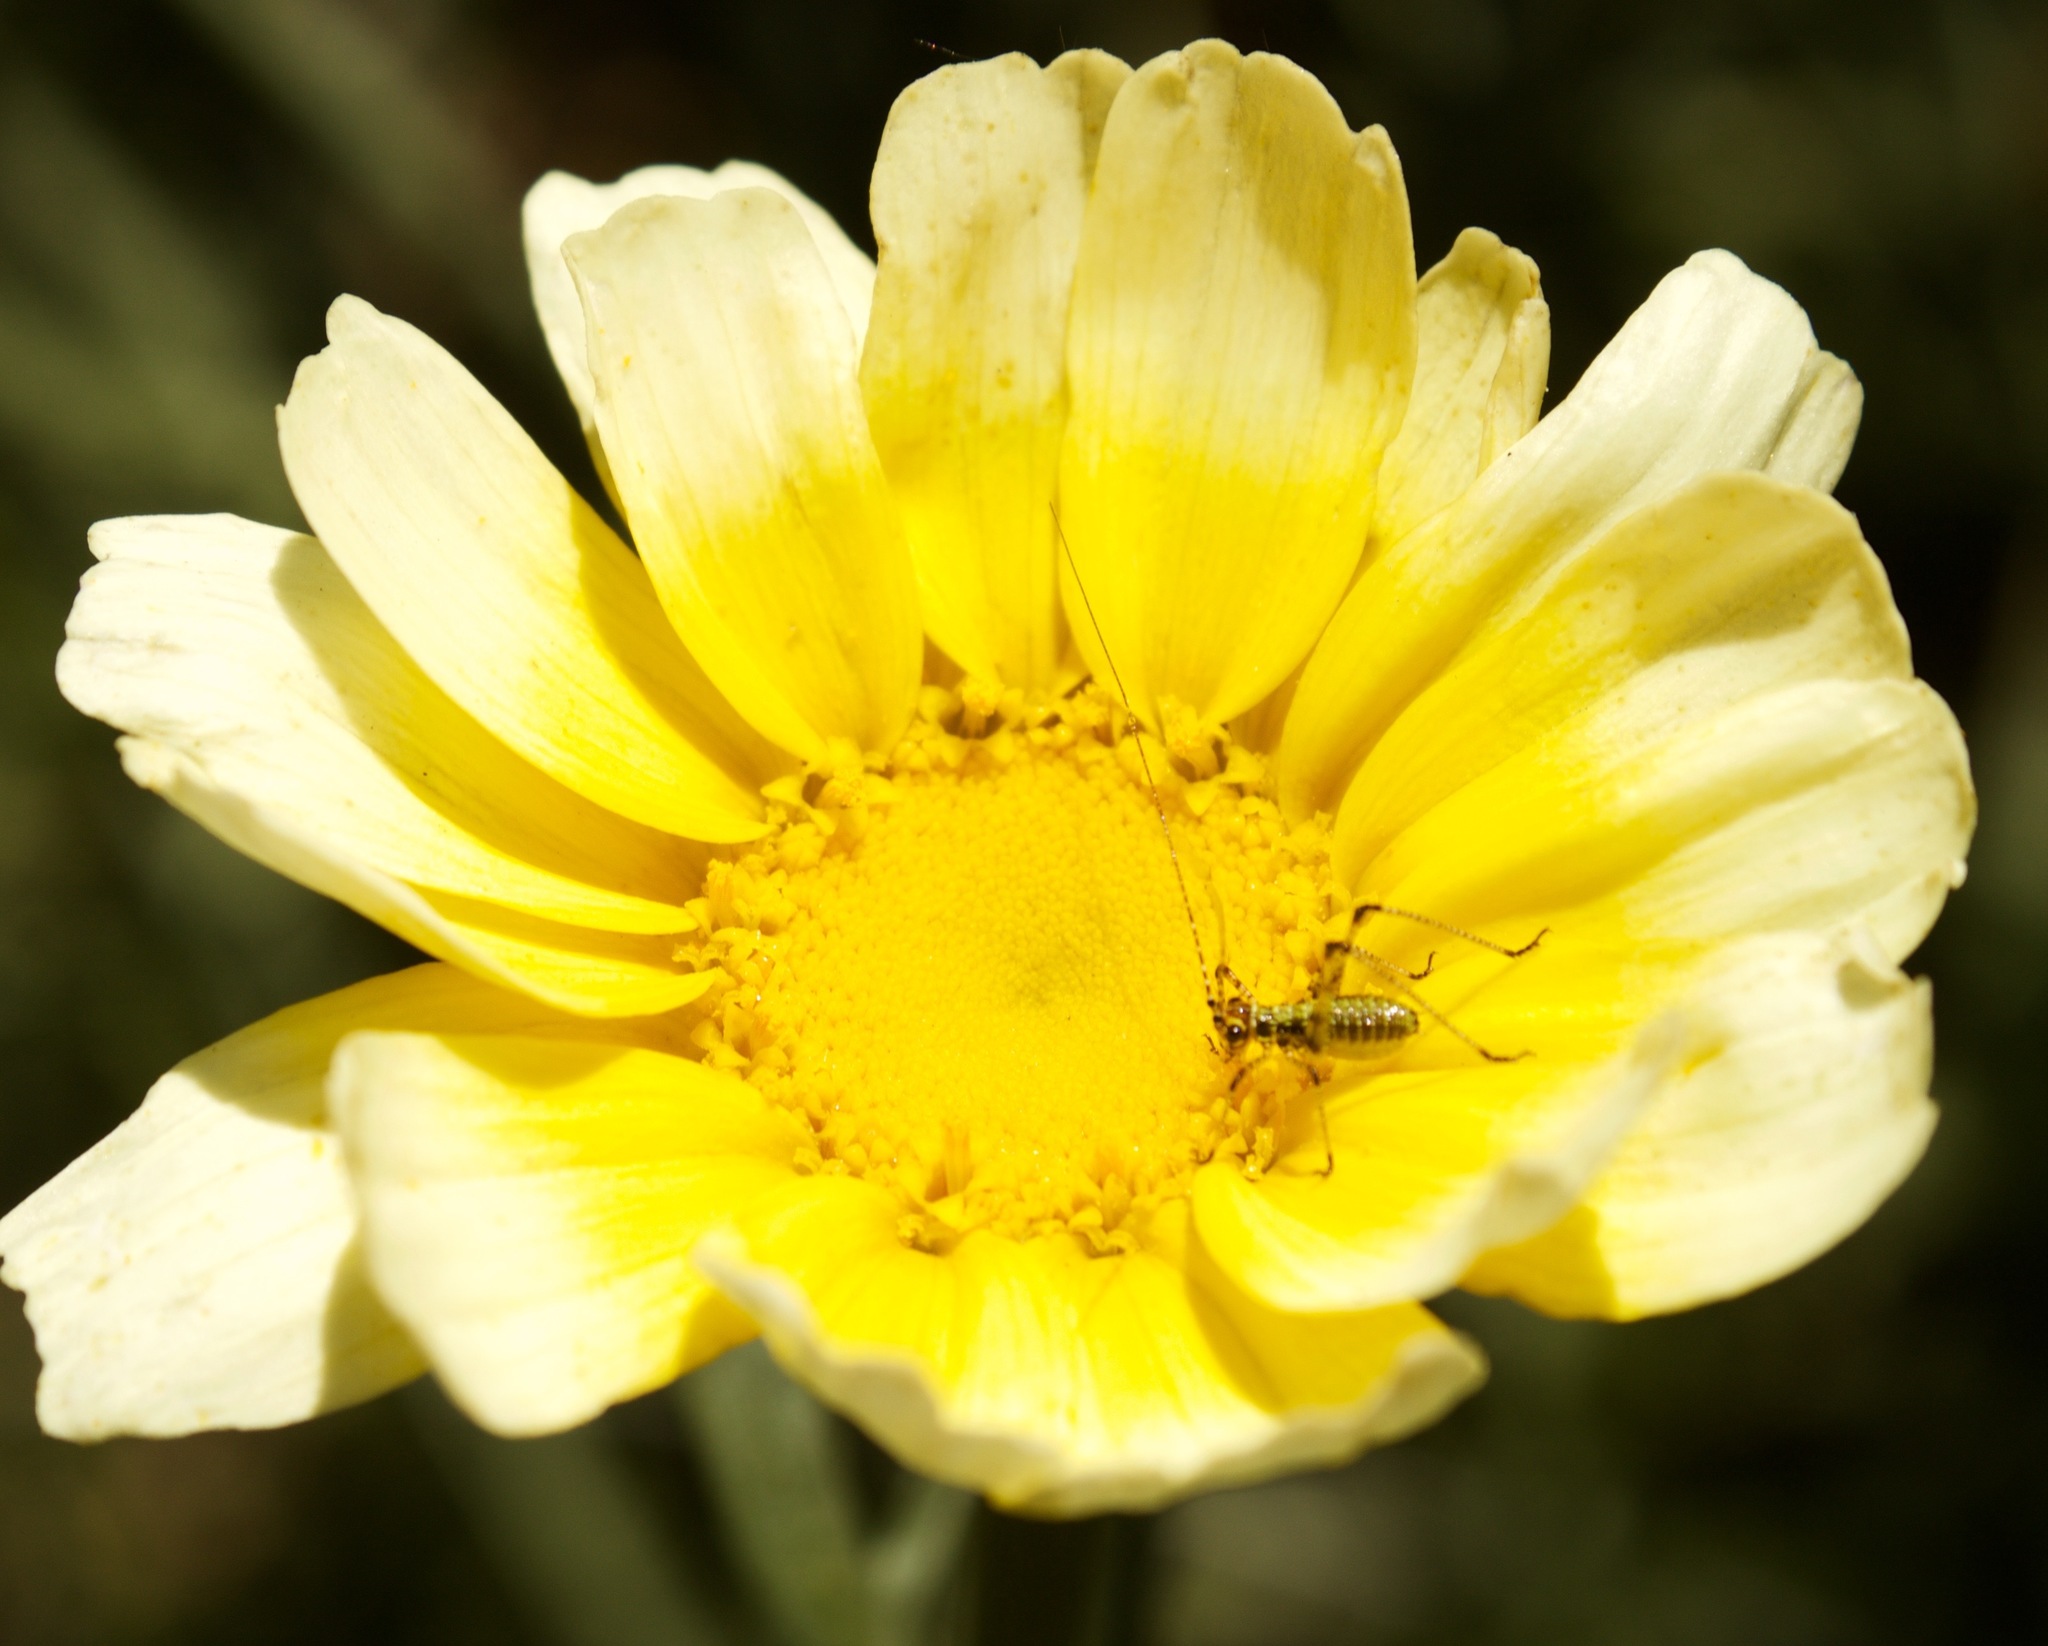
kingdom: Animalia
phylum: Arthropoda
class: Insecta
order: Orthoptera
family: Tettigoniidae
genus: Phaneroptera
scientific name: Phaneroptera nana
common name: Southern sickle bush-cricket
